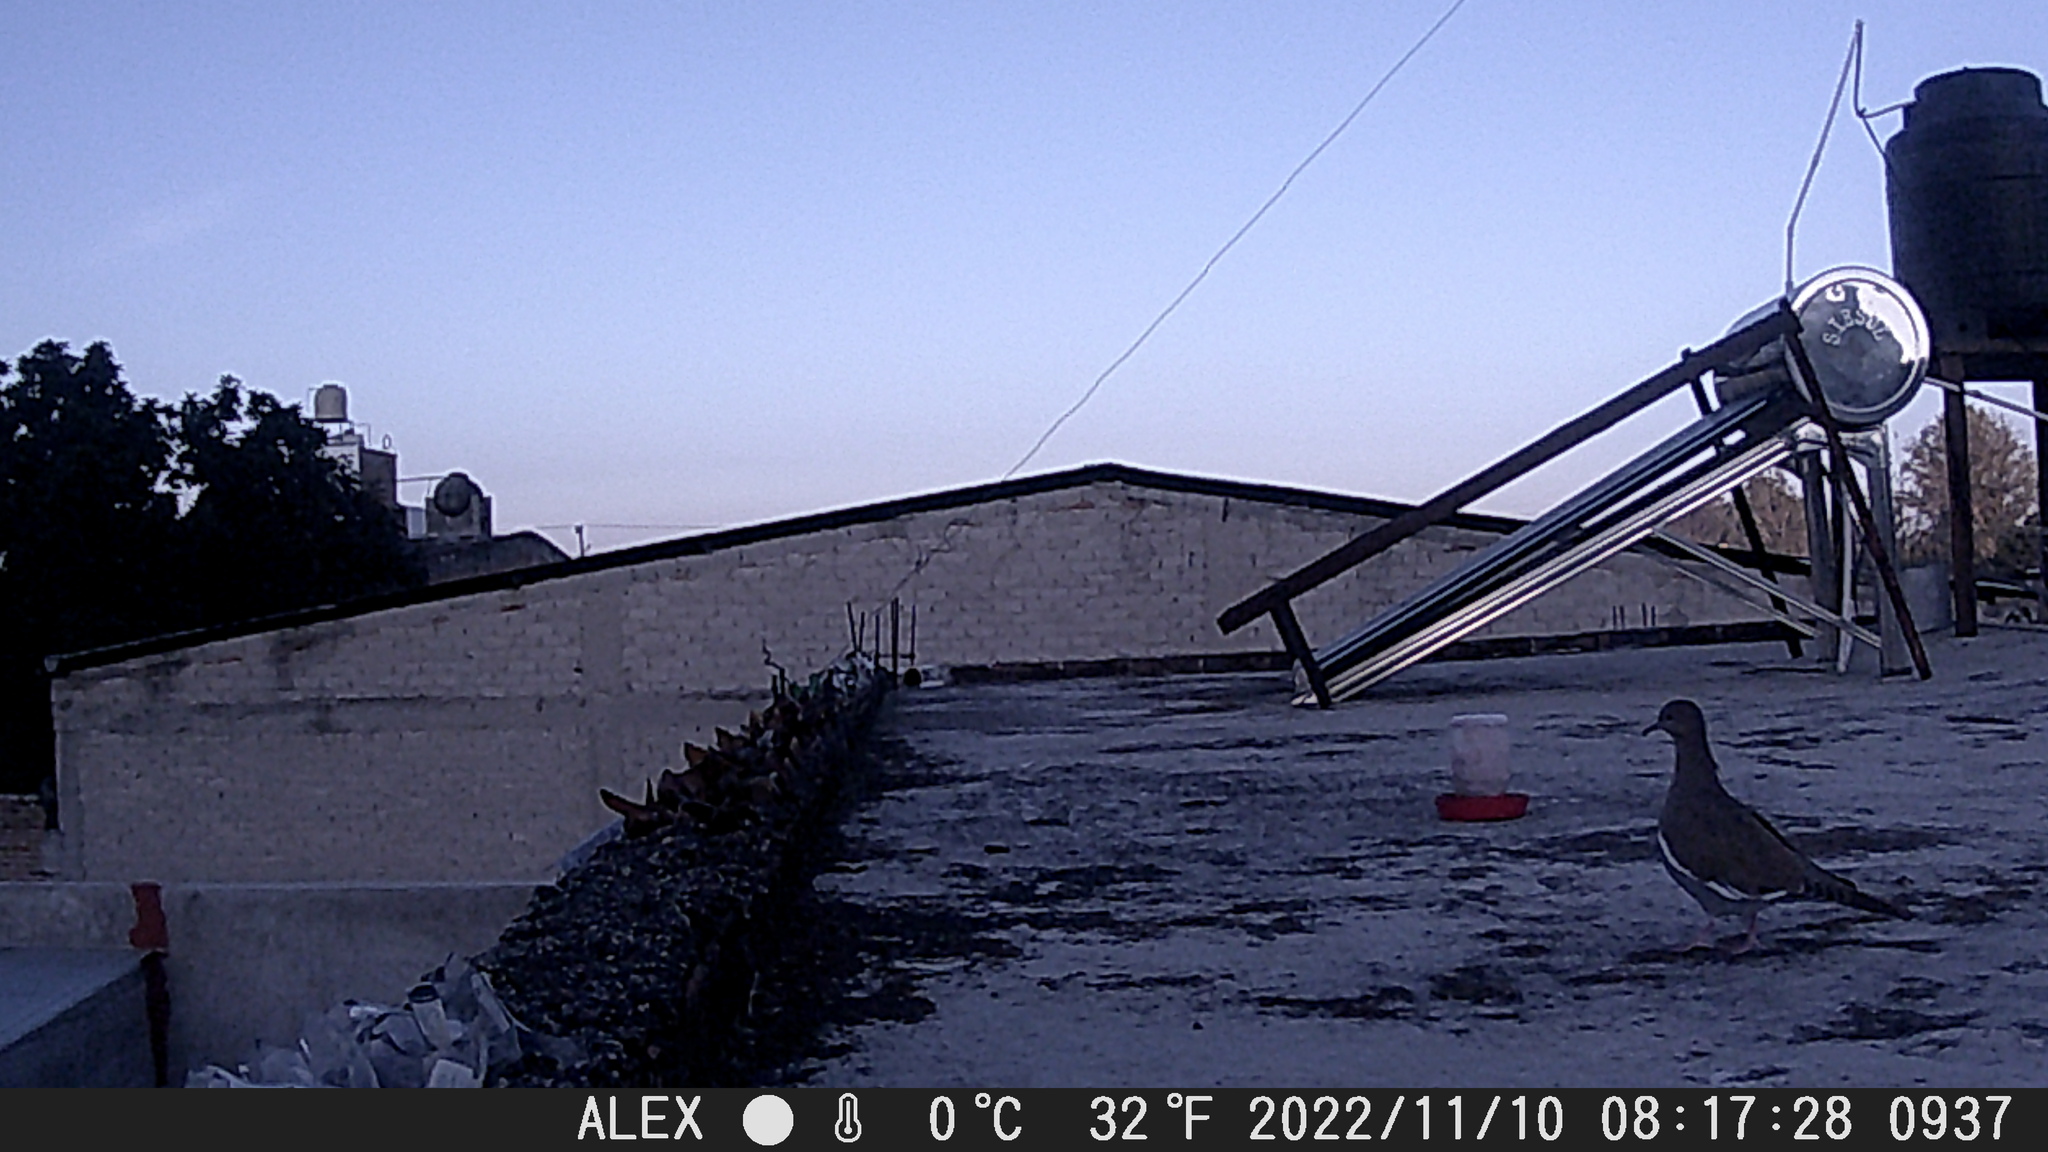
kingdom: Animalia
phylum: Chordata
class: Aves
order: Columbiformes
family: Columbidae
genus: Zenaida
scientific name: Zenaida asiatica
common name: White-winged dove
